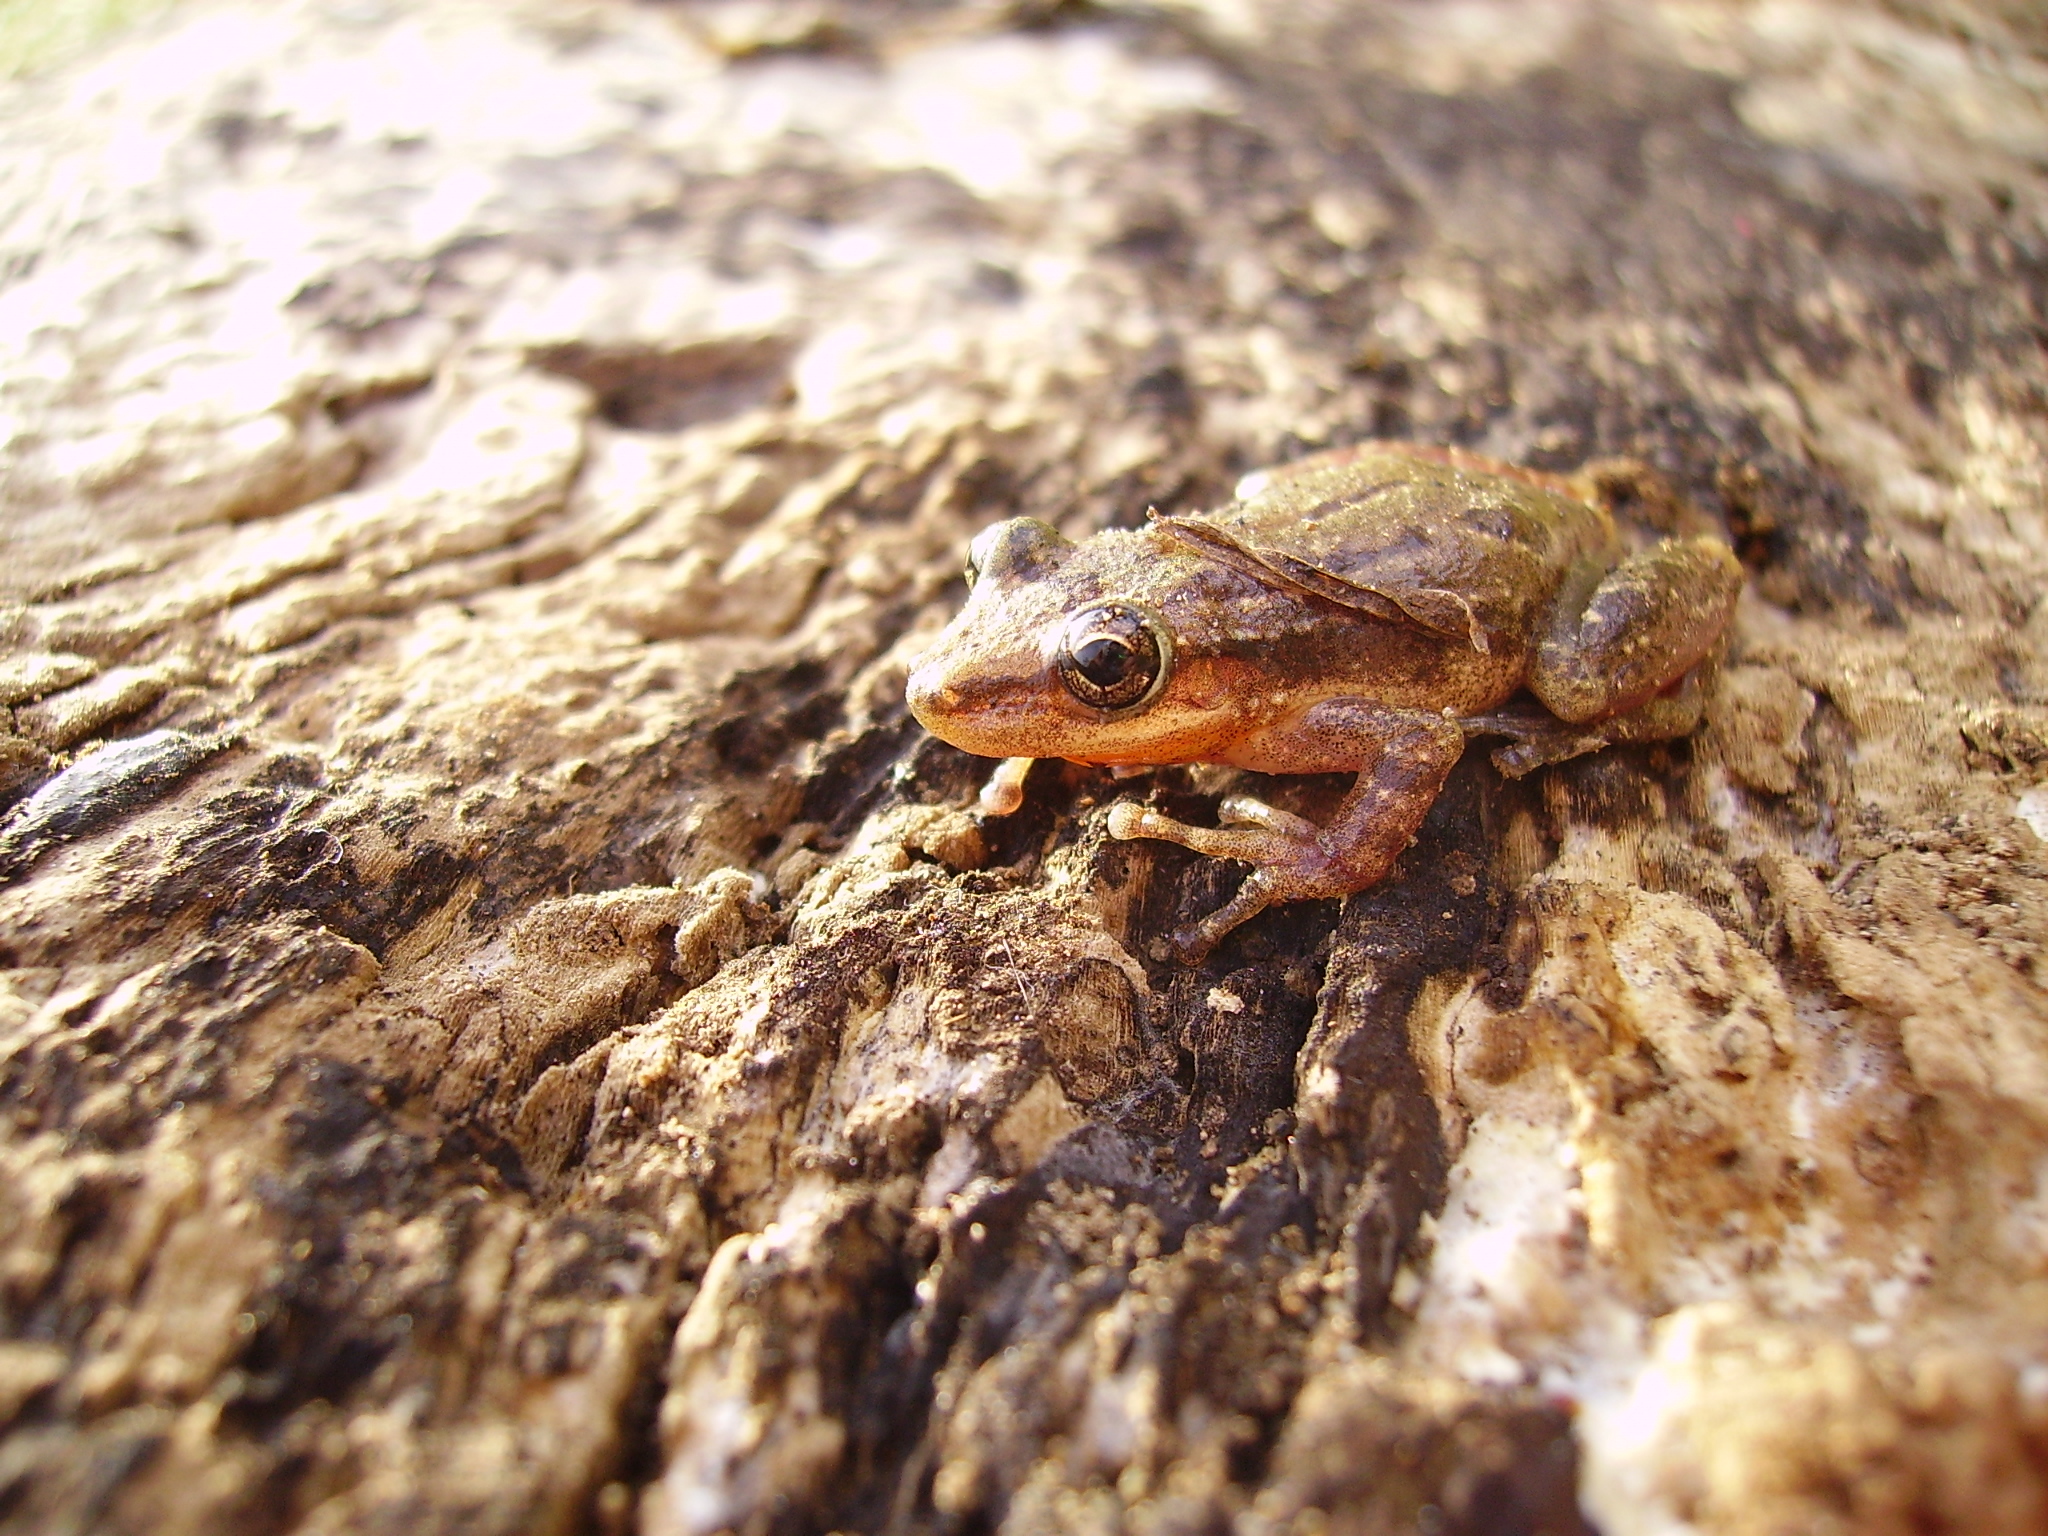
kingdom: Animalia
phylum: Chordata
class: Amphibia
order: Anura
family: Leptodactylidae
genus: Leptodactylus
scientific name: Leptodactylus melanonotus
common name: Fringe-toed foamfrog
